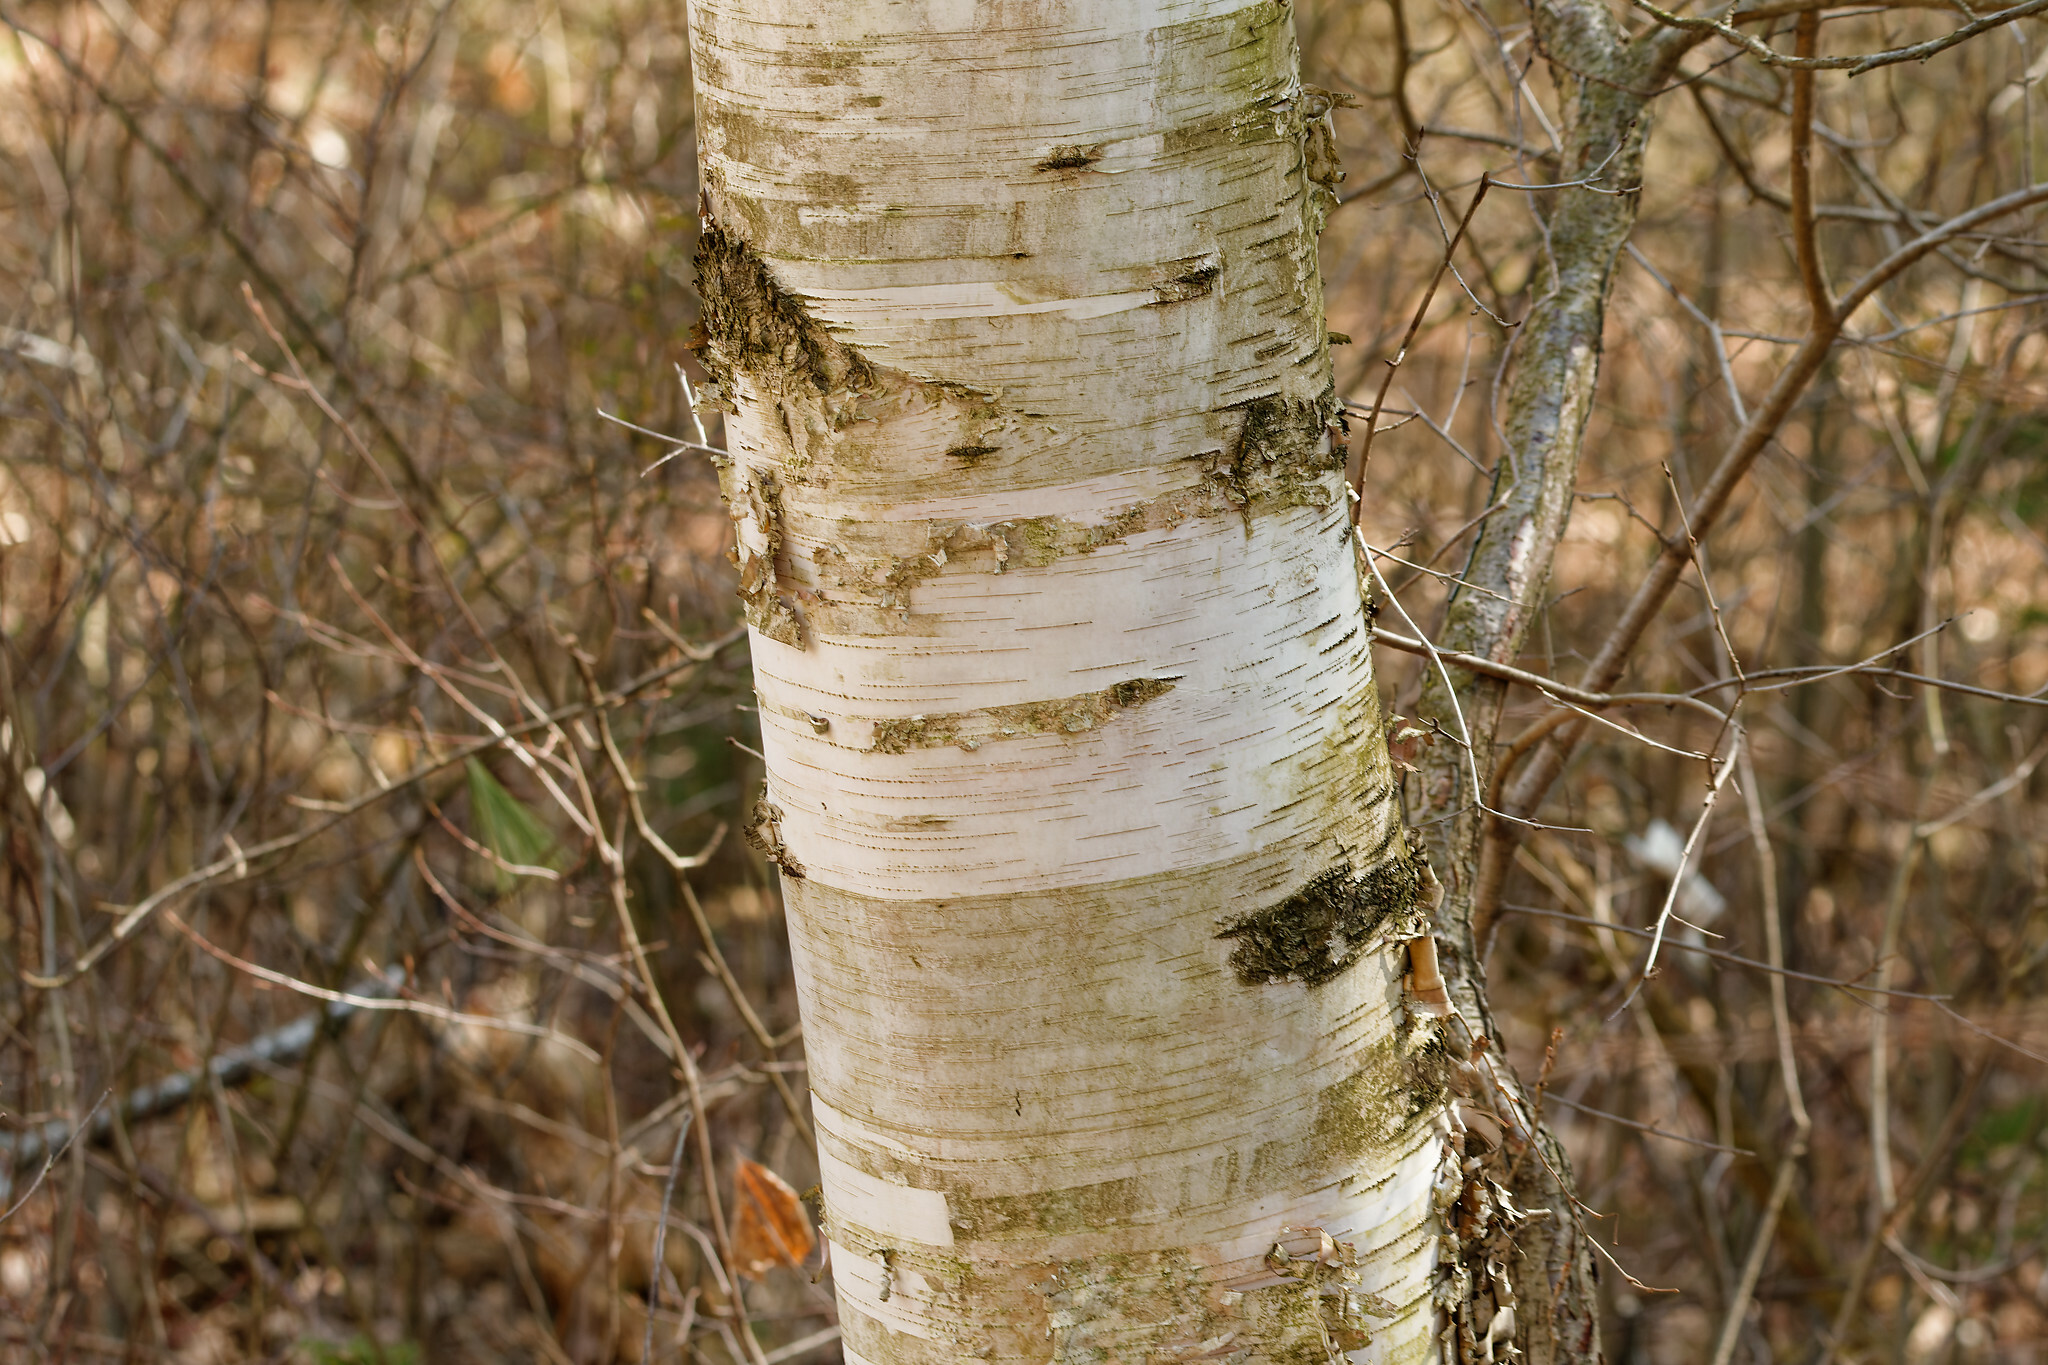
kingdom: Plantae
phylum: Tracheophyta
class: Magnoliopsida
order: Fagales
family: Betulaceae
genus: Betula
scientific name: Betula papyrifera
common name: Paper birch
